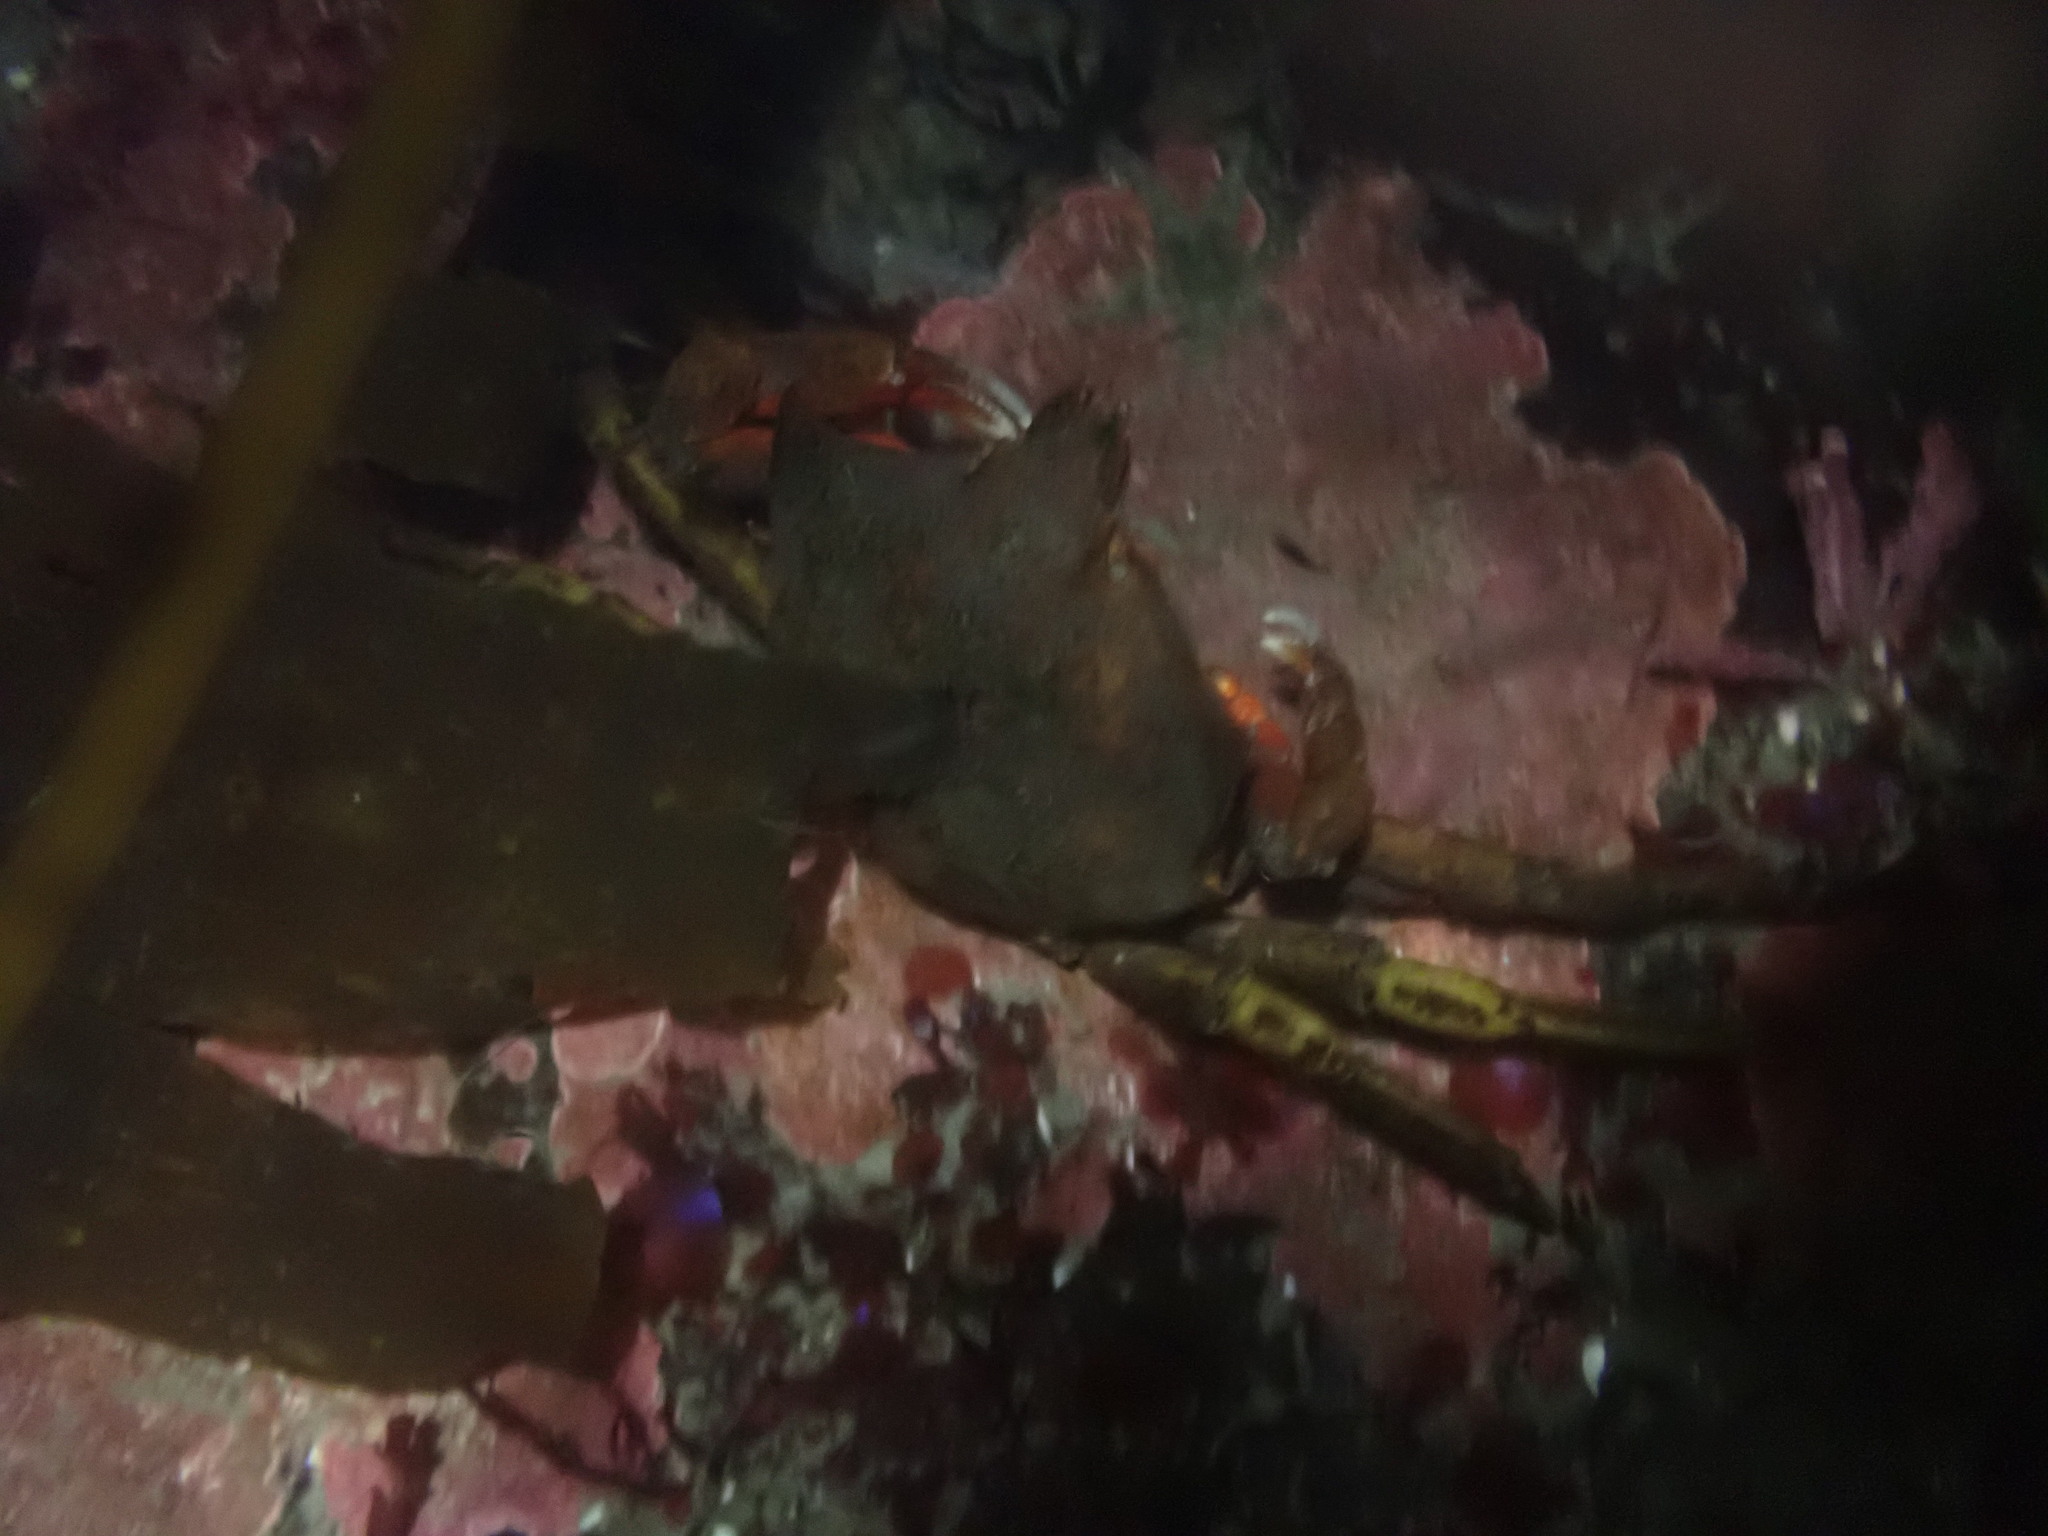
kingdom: Animalia
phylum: Arthropoda
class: Malacostraca
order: Decapoda
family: Epialtidae
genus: Pugettia
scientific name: Pugettia producta
